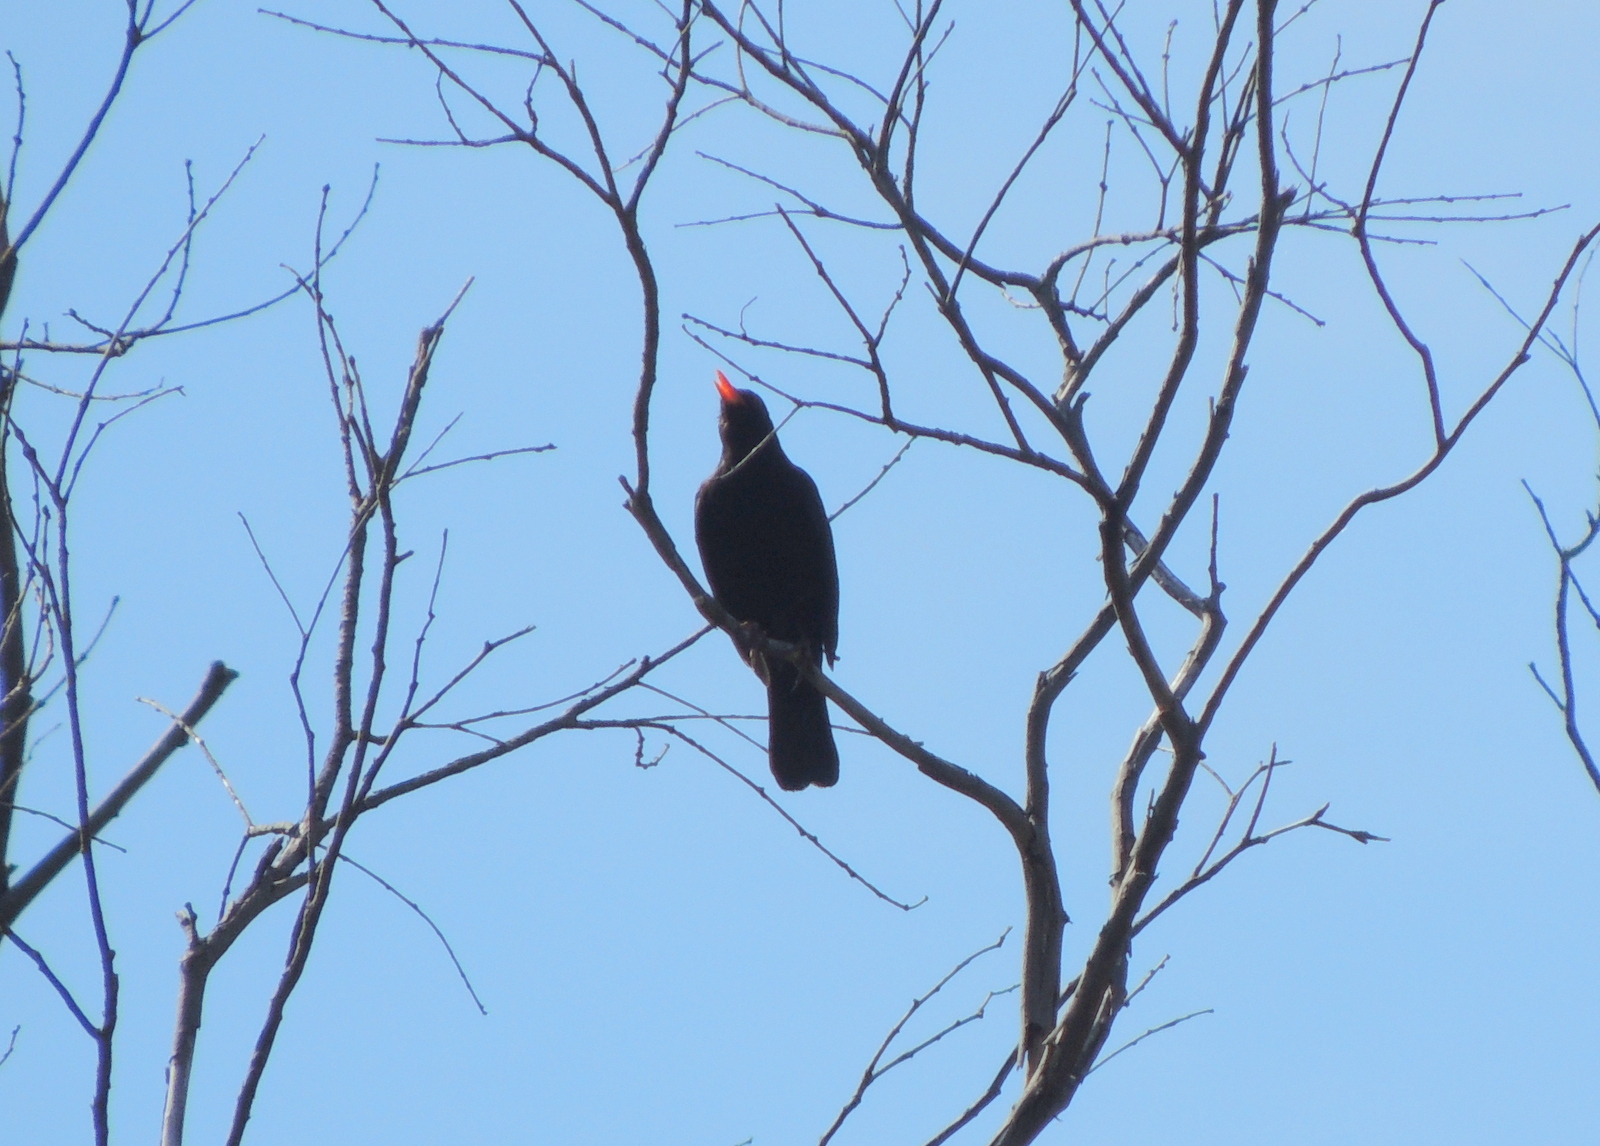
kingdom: Animalia
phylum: Chordata
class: Aves
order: Passeriformes
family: Turdidae
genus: Turdus
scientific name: Turdus merula
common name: Common blackbird
